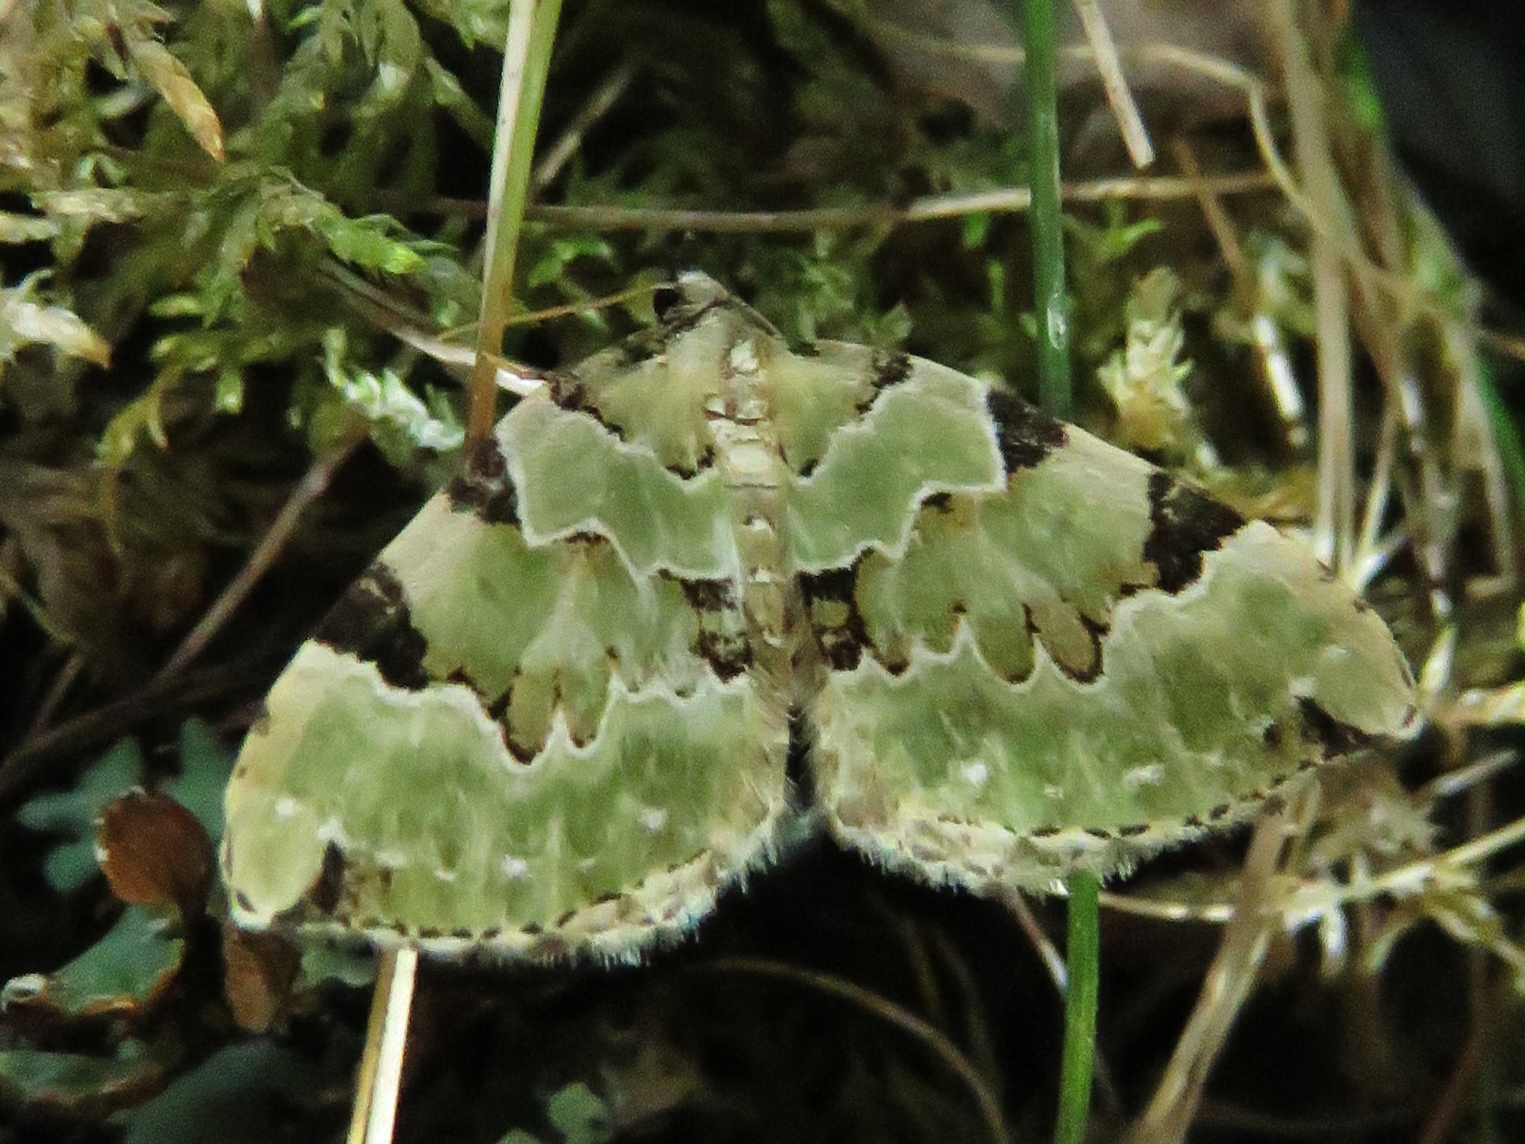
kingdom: Animalia
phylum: Arthropoda
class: Insecta
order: Lepidoptera
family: Geometridae
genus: Colostygia
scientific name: Colostygia pectinataria
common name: Green carpet
